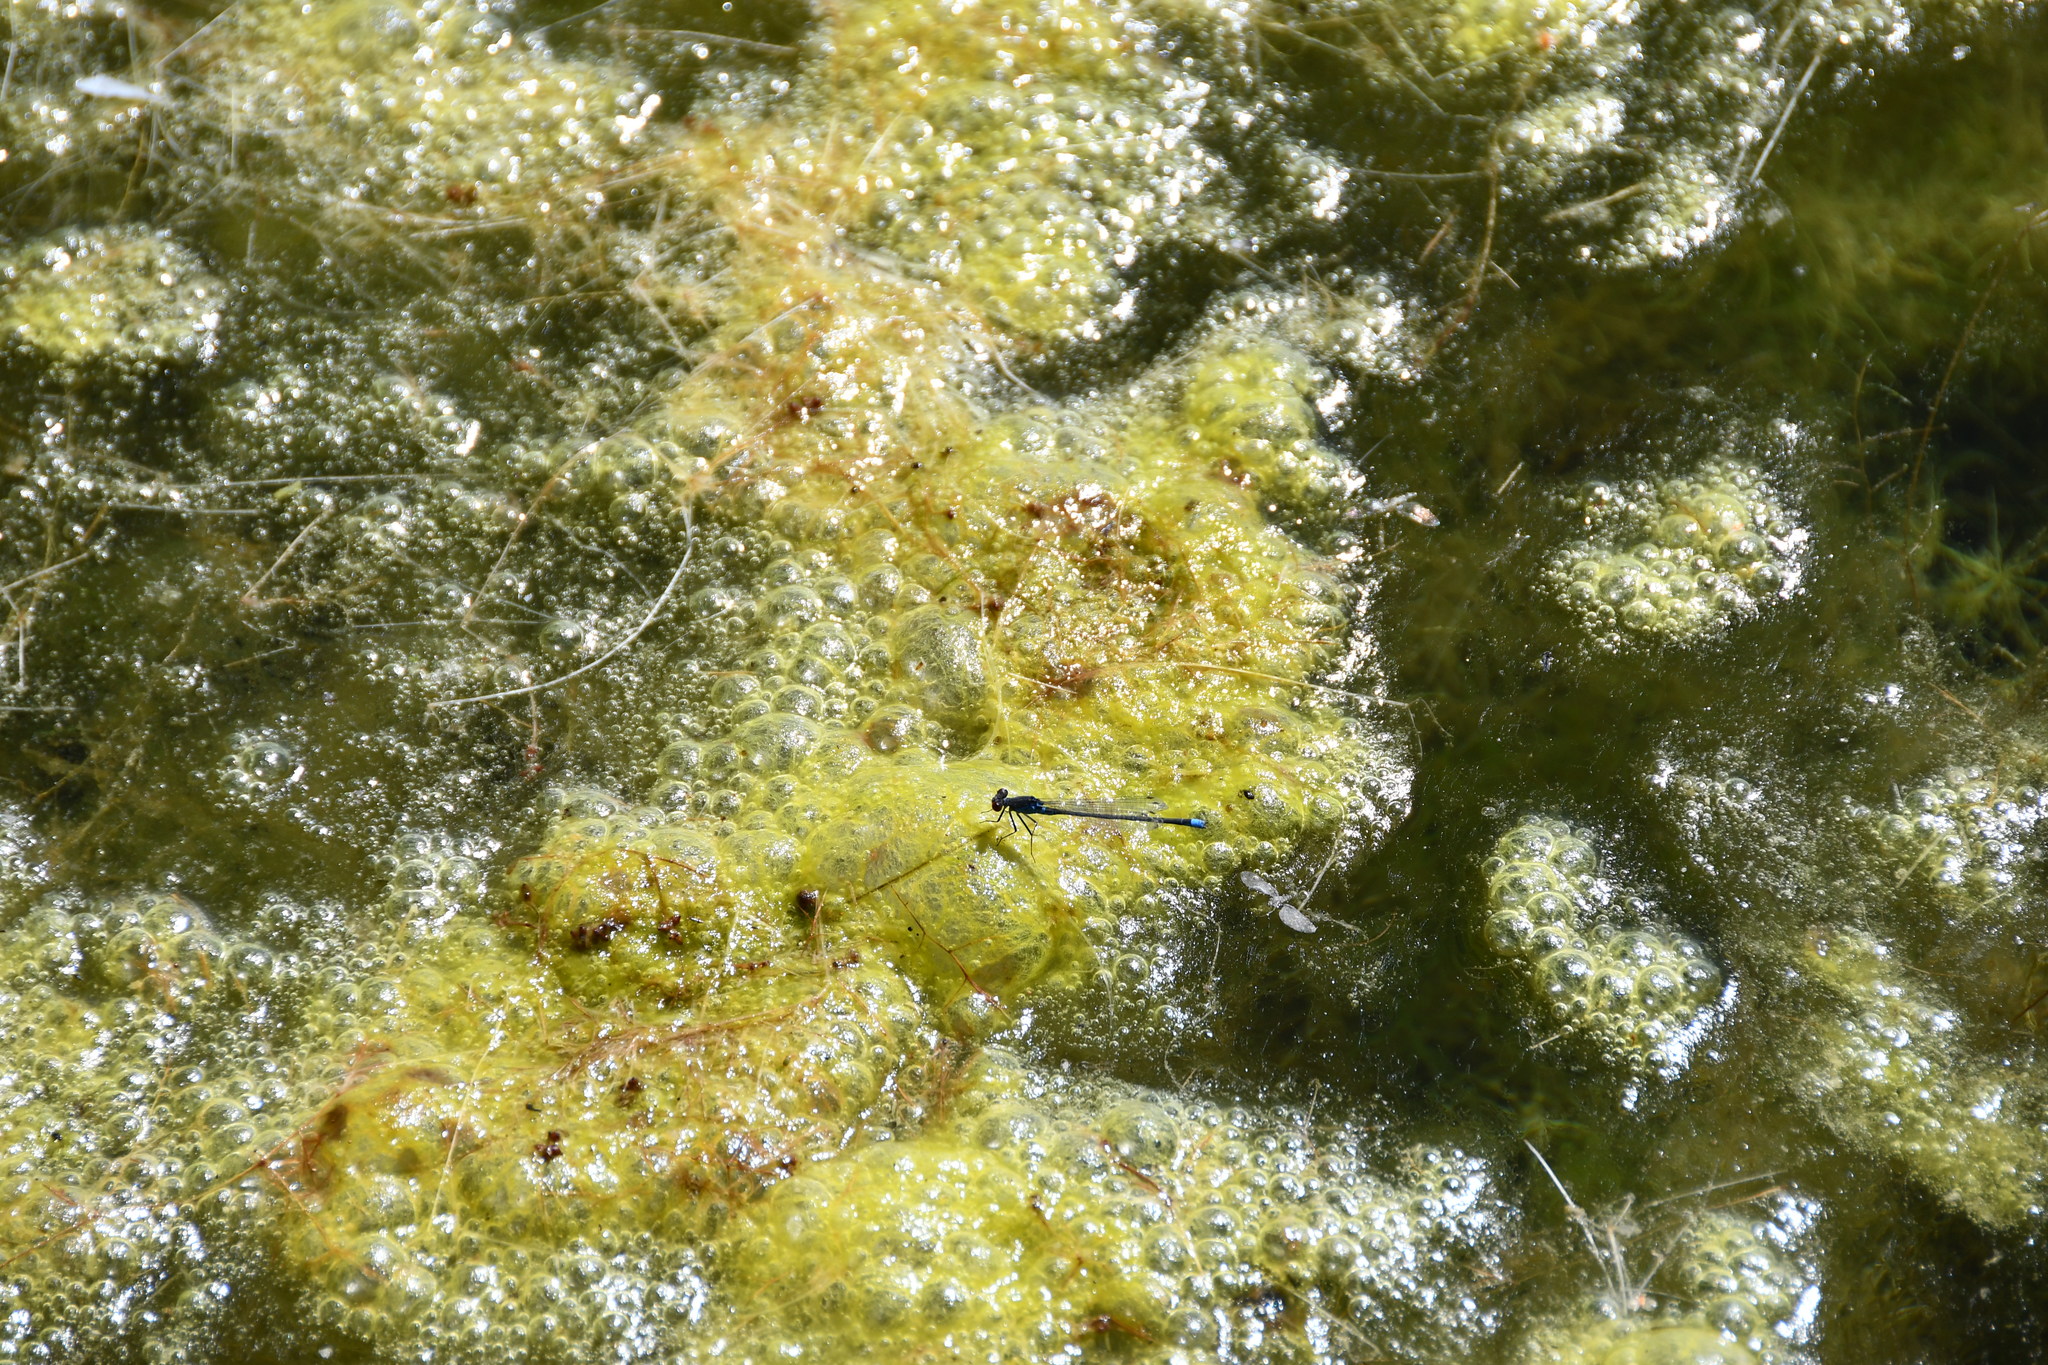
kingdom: Animalia
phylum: Arthropoda
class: Insecta
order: Odonata
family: Coenagrionidae
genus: Erythromma
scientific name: Erythromma najas
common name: Red-eyed damselfly
